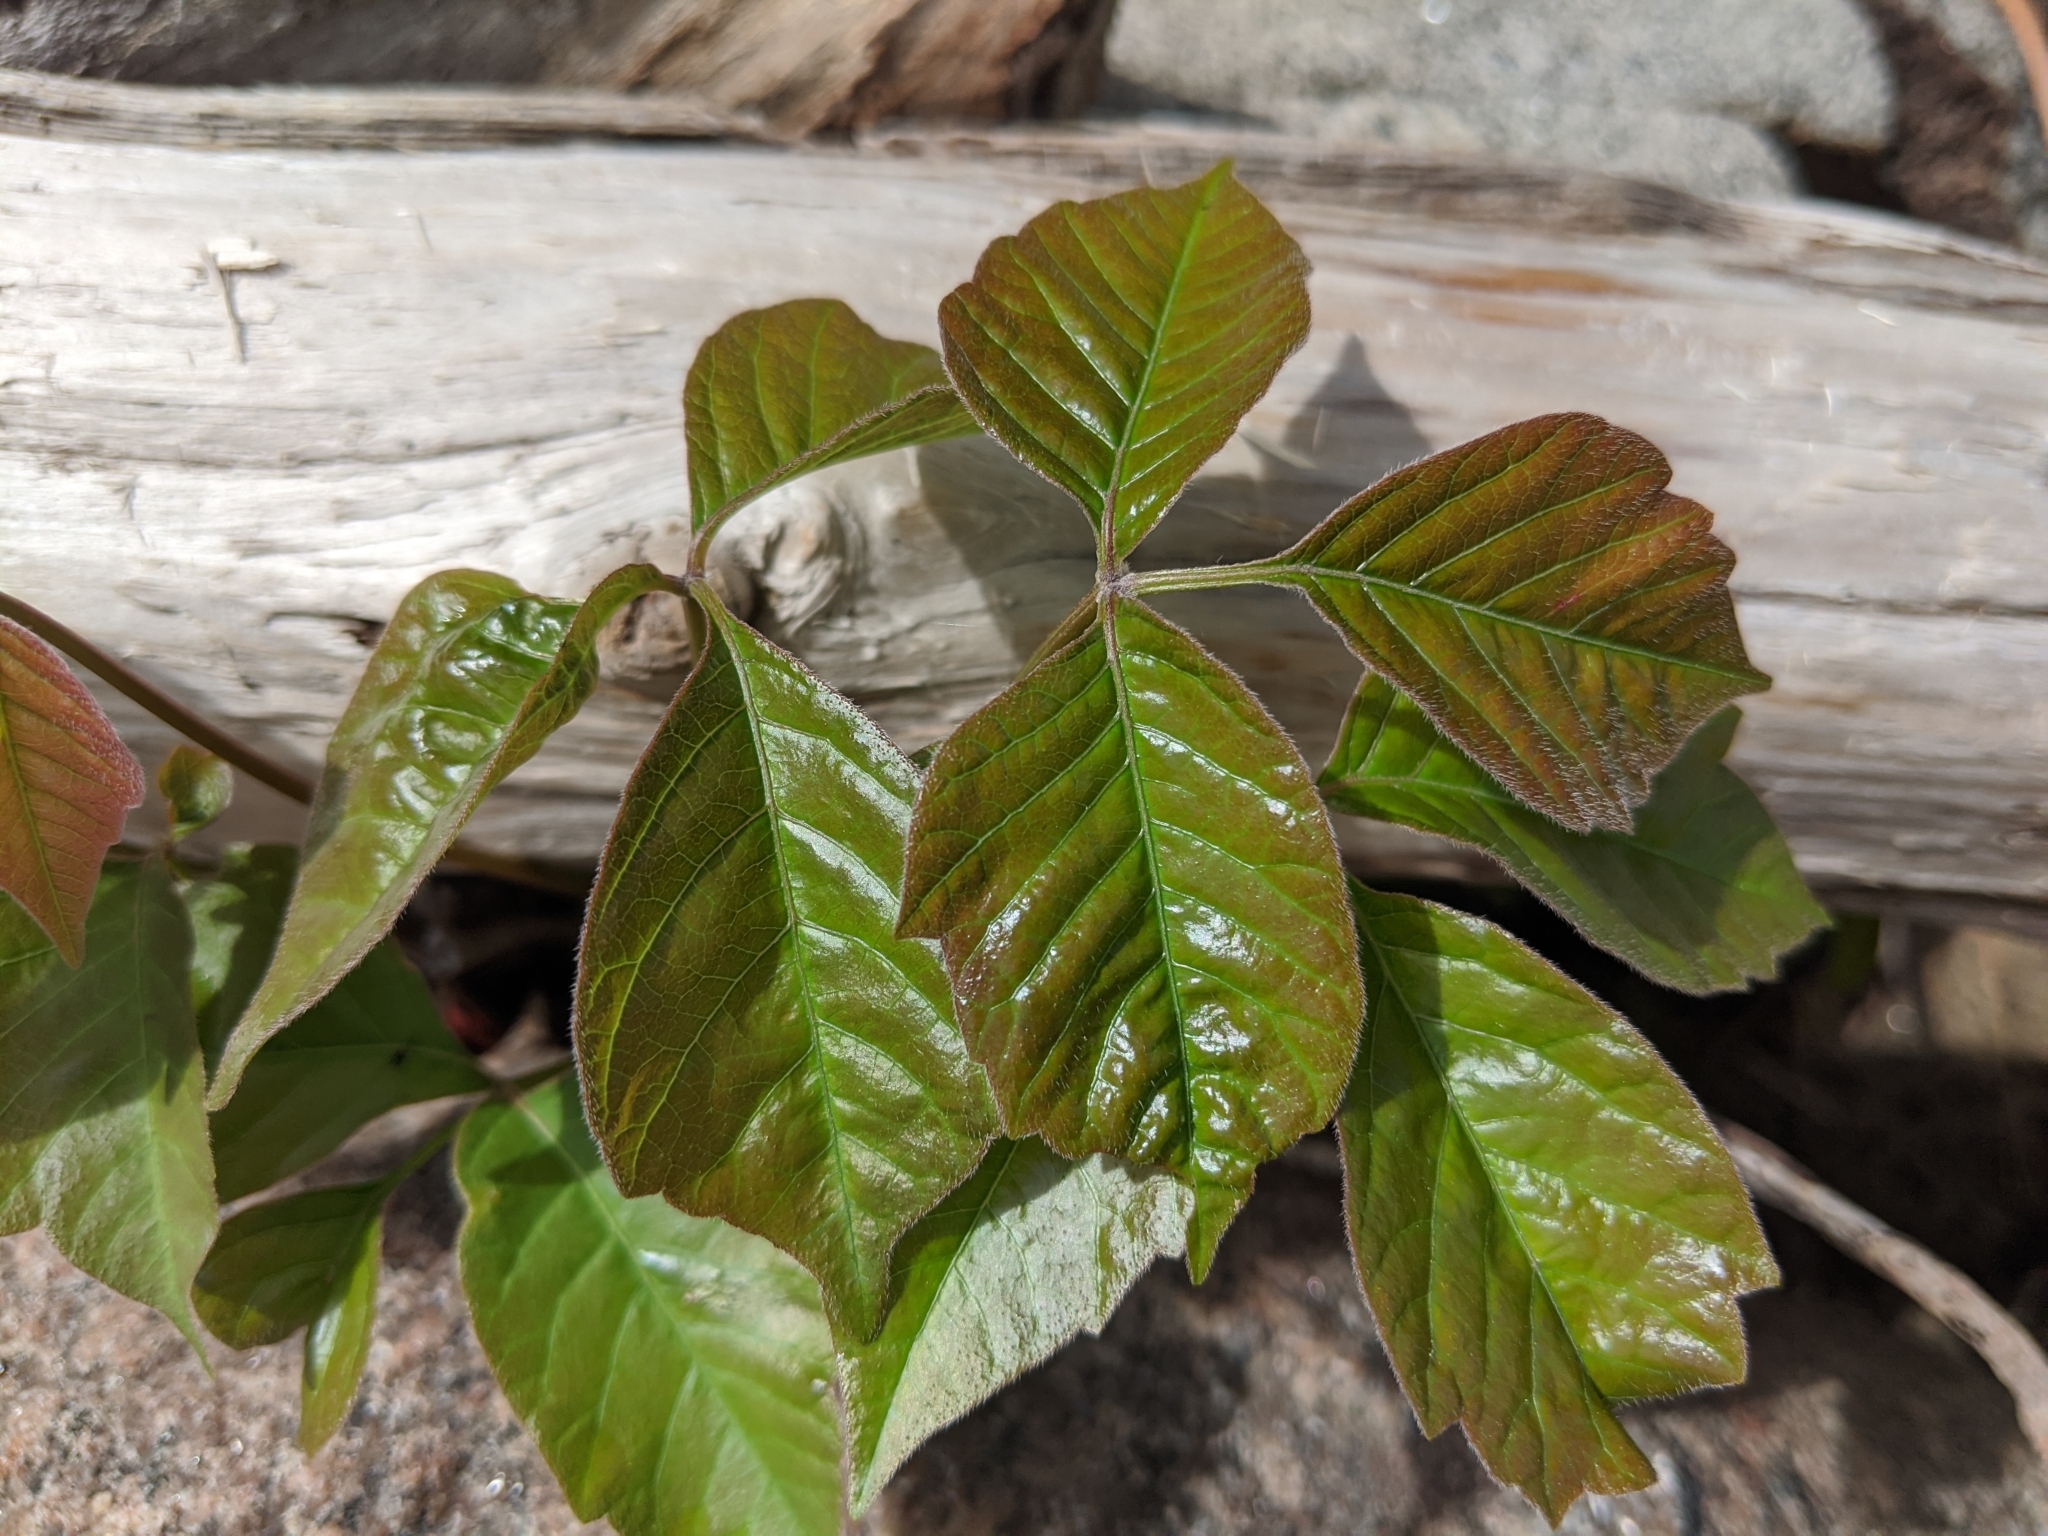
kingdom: Plantae
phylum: Tracheophyta
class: Magnoliopsida
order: Sapindales
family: Anacardiaceae
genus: Toxicodendron
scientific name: Toxicodendron radicans
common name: Poison ivy
